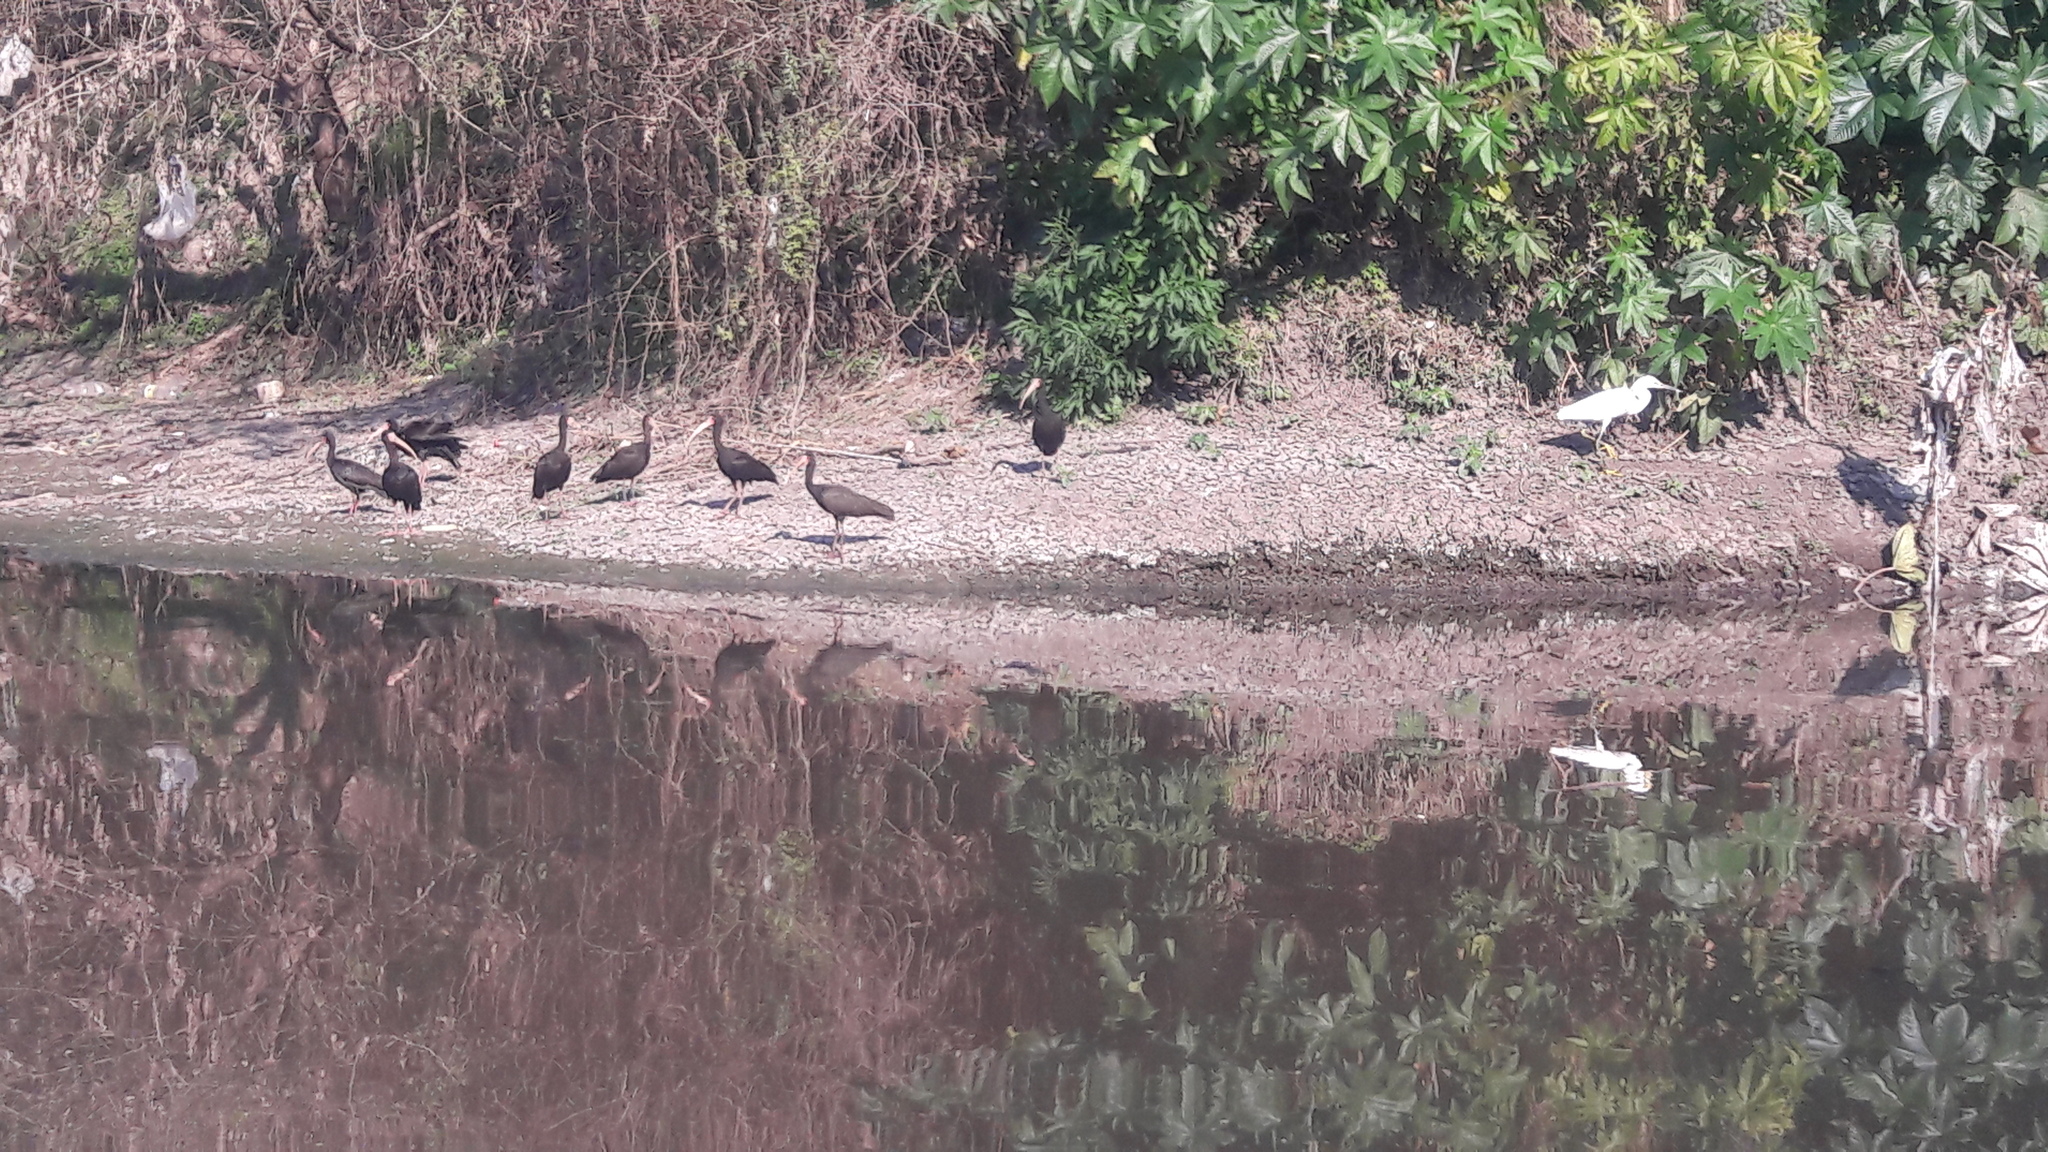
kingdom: Animalia
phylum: Chordata
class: Aves
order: Pelecaniformes
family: Threskiornithidae
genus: Phimosus
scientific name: Phimosus infuscatus
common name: Bare-faced ibis
